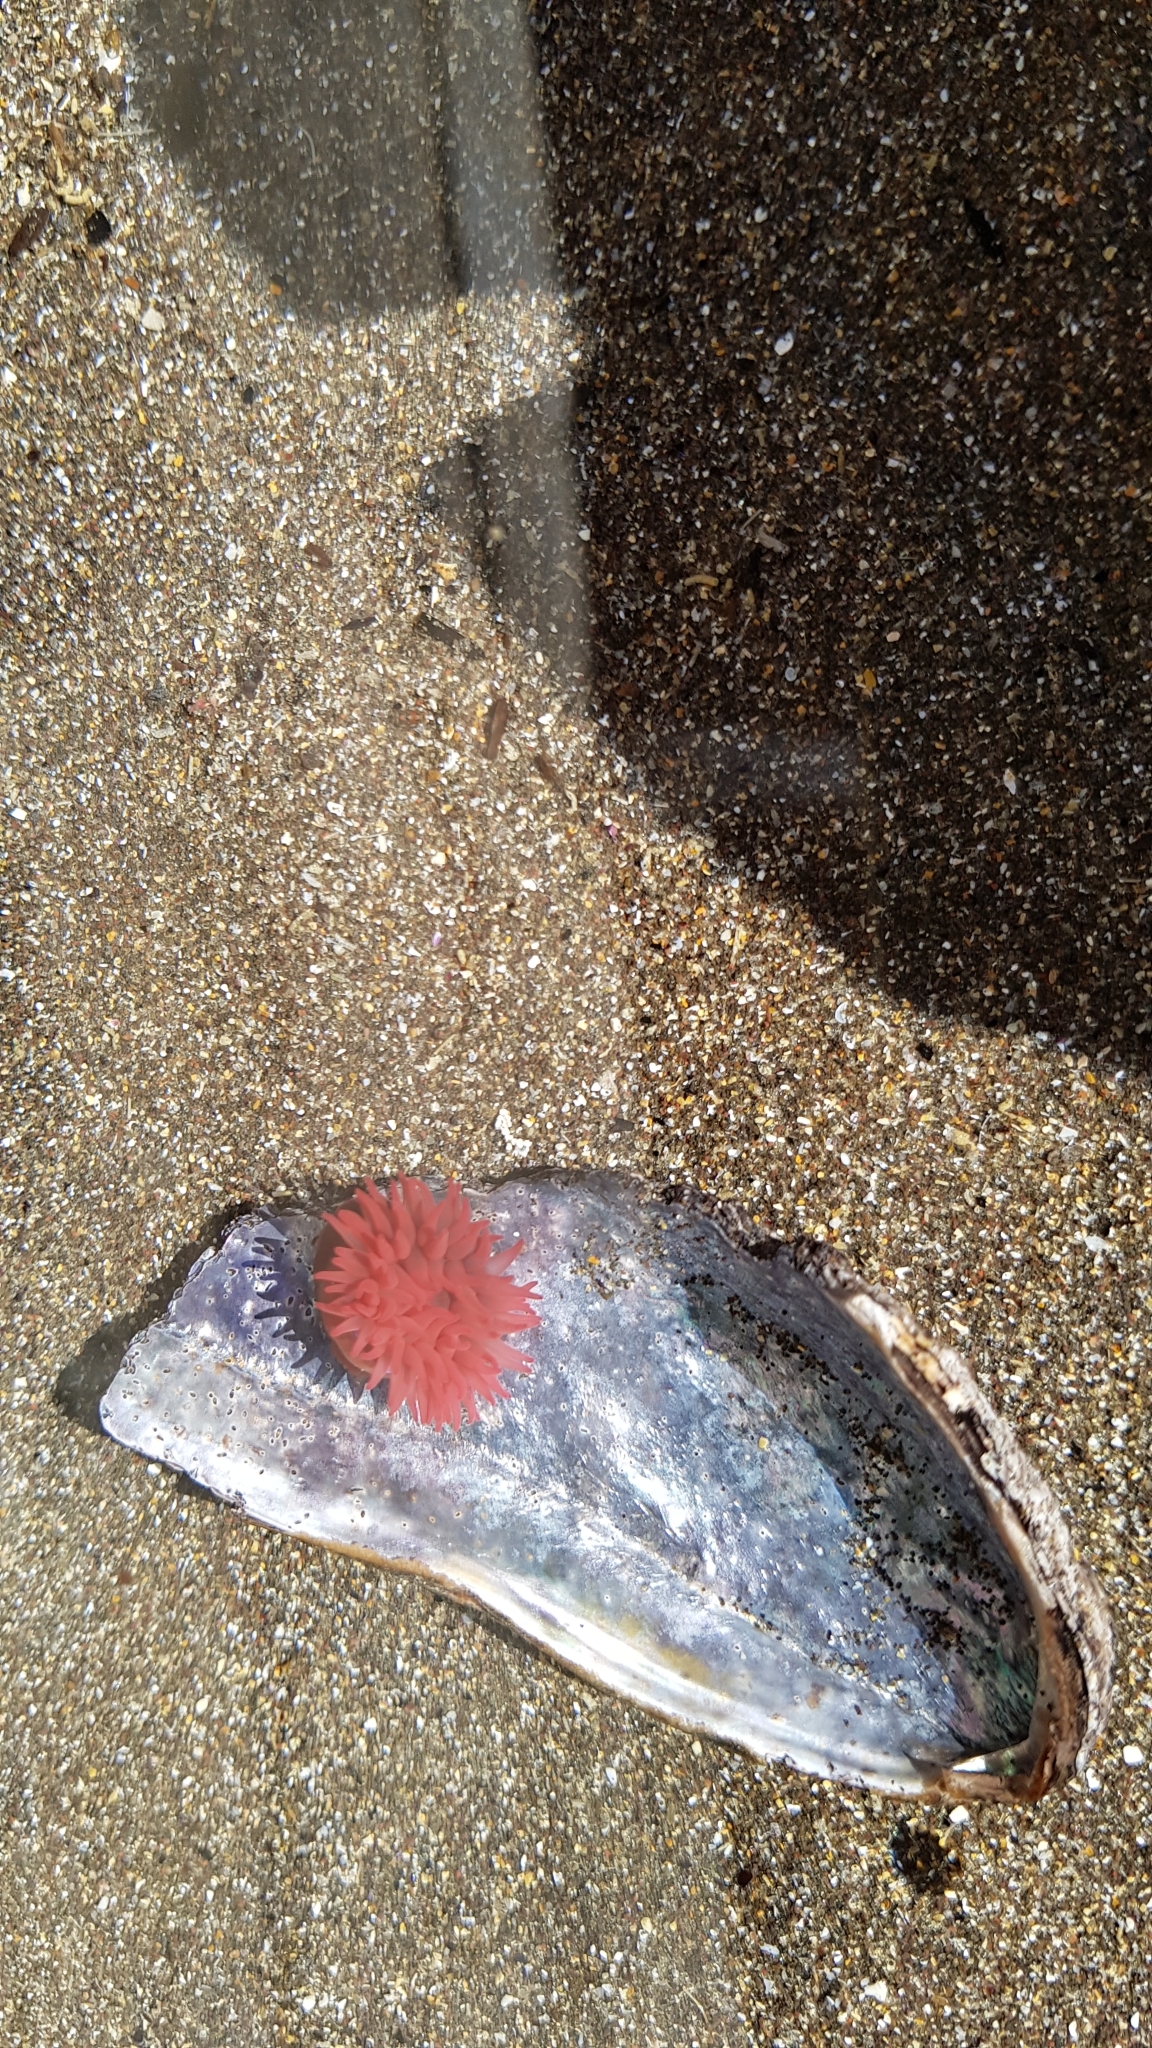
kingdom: Animalia
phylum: Cnidaria
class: Anthozoa
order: Actiniaria
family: Actiniidae
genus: Actinia
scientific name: Actinia tenebrosa
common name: Waratah anemone
